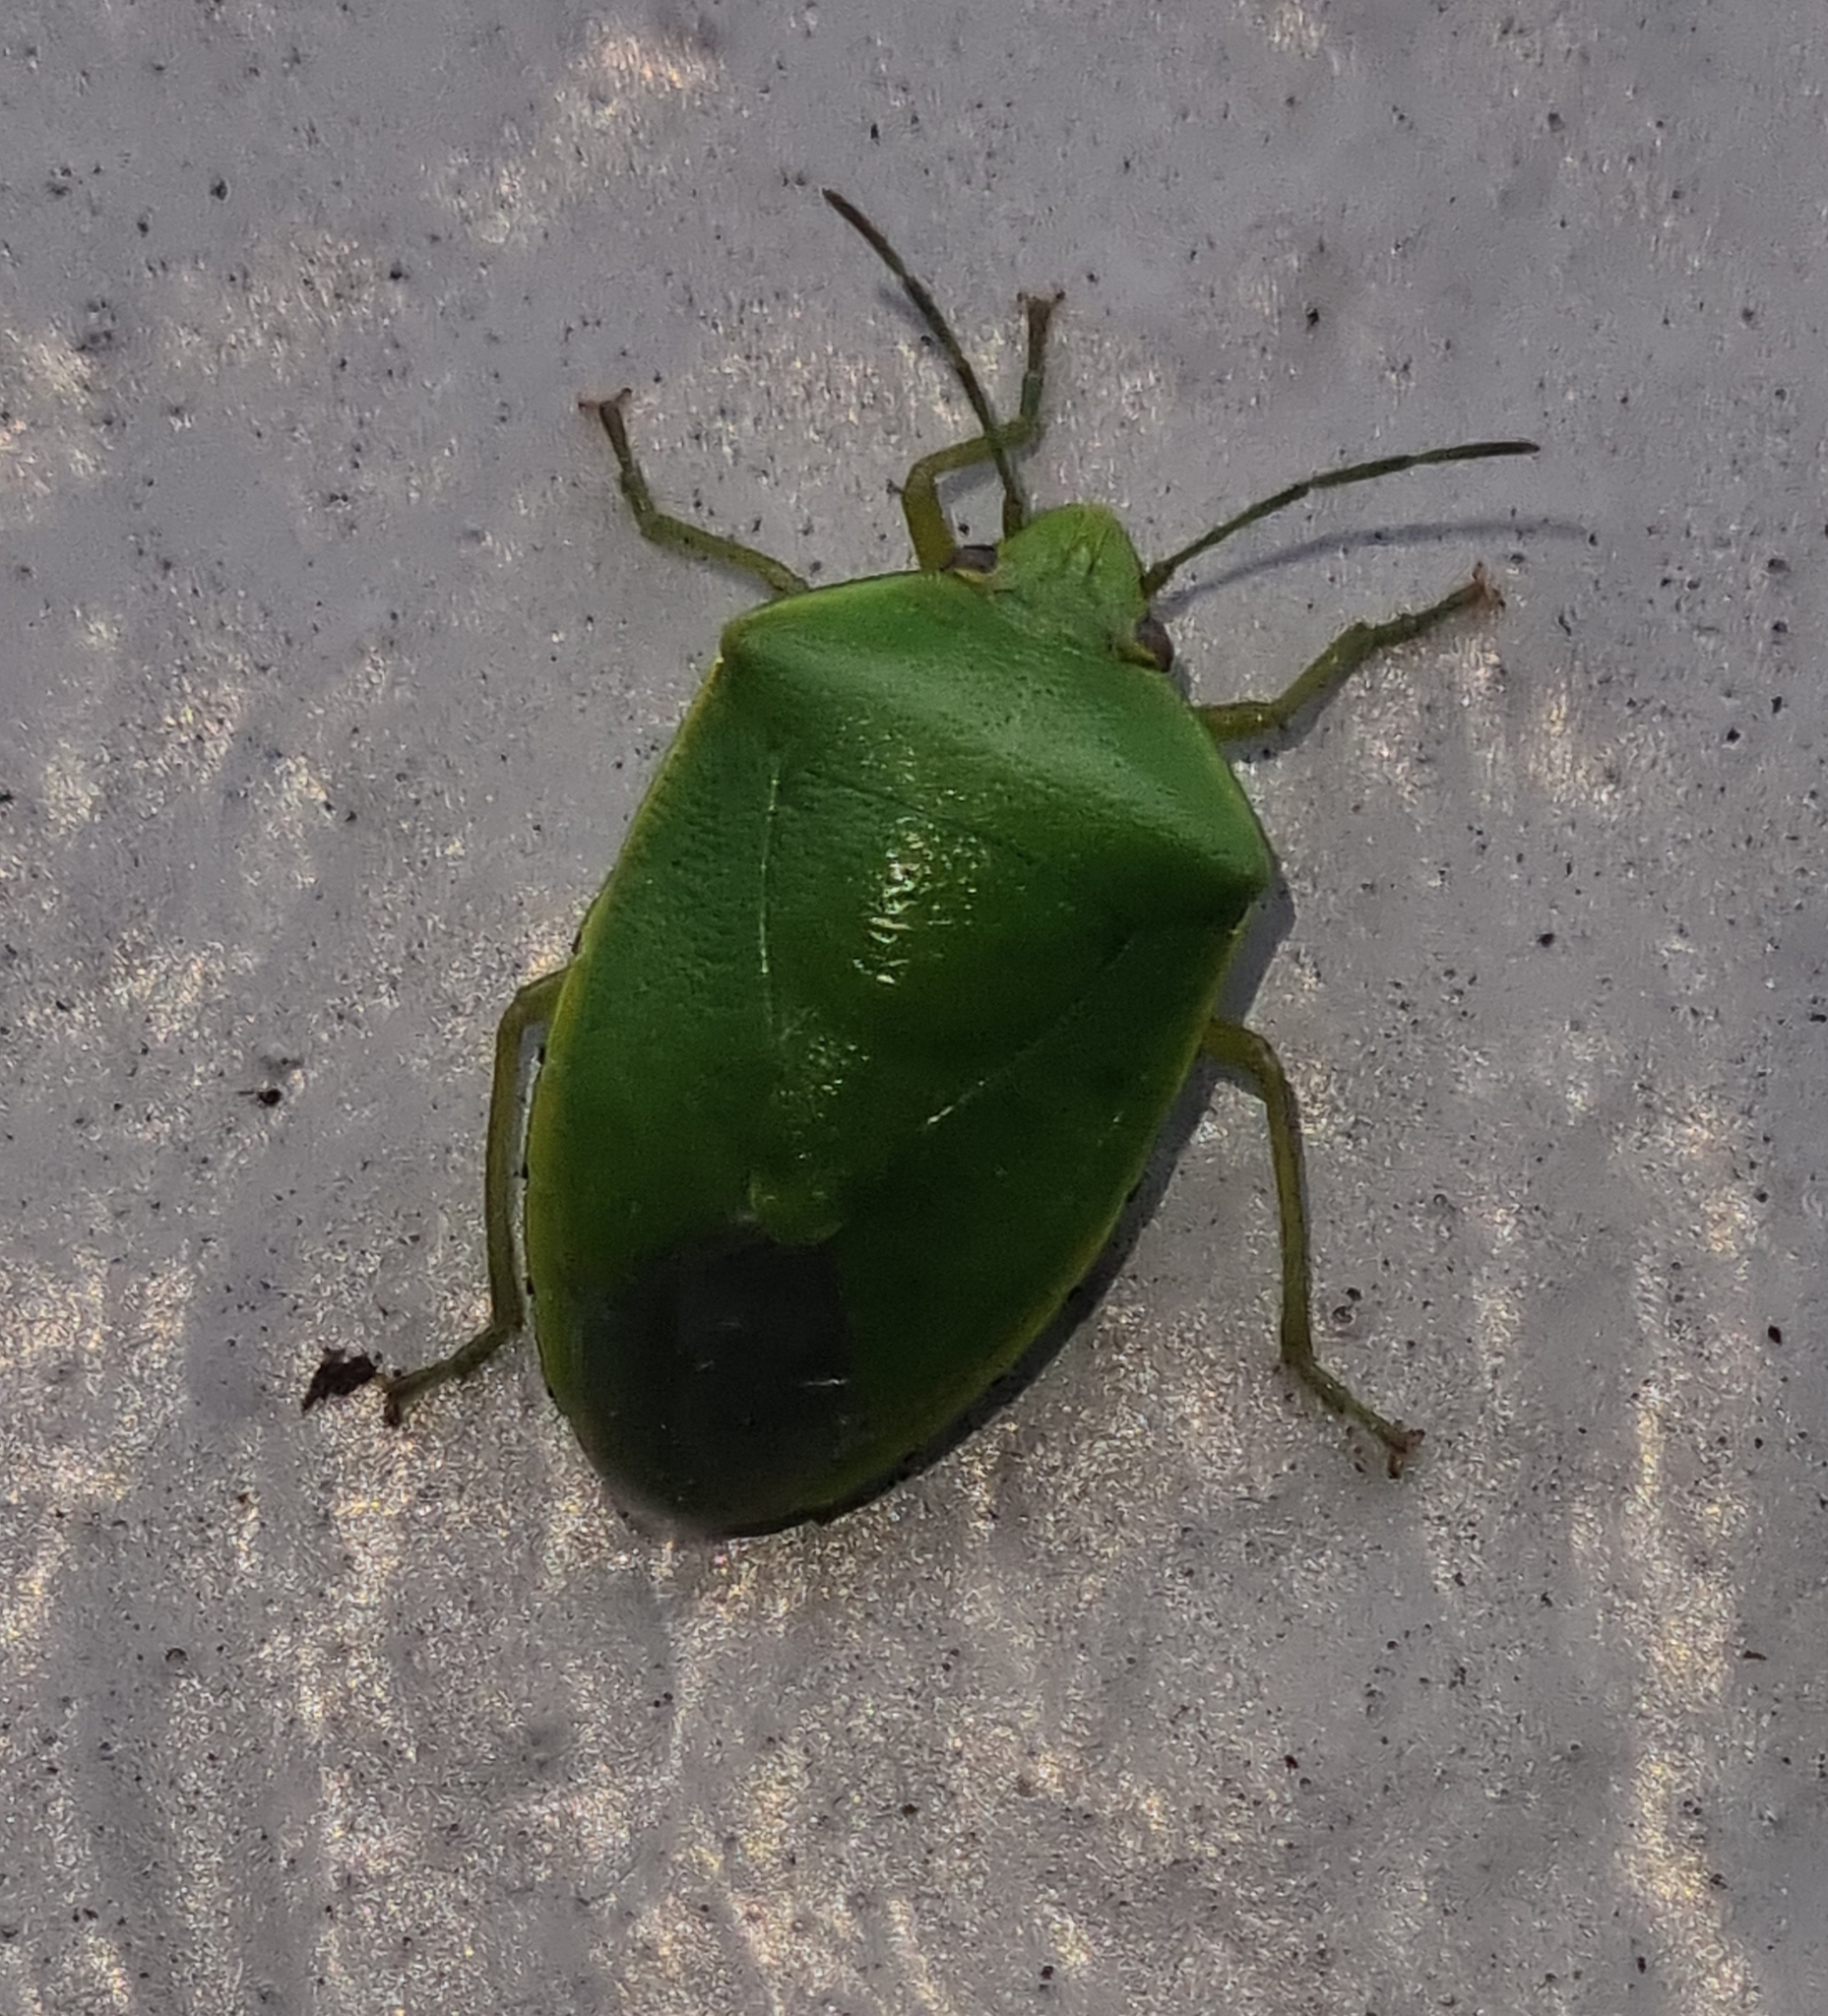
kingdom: Animalia
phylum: Arthropoda
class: Insecta
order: Hemiptera
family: Pentatomidae
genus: Glaucias
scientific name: Glaucias amyota
